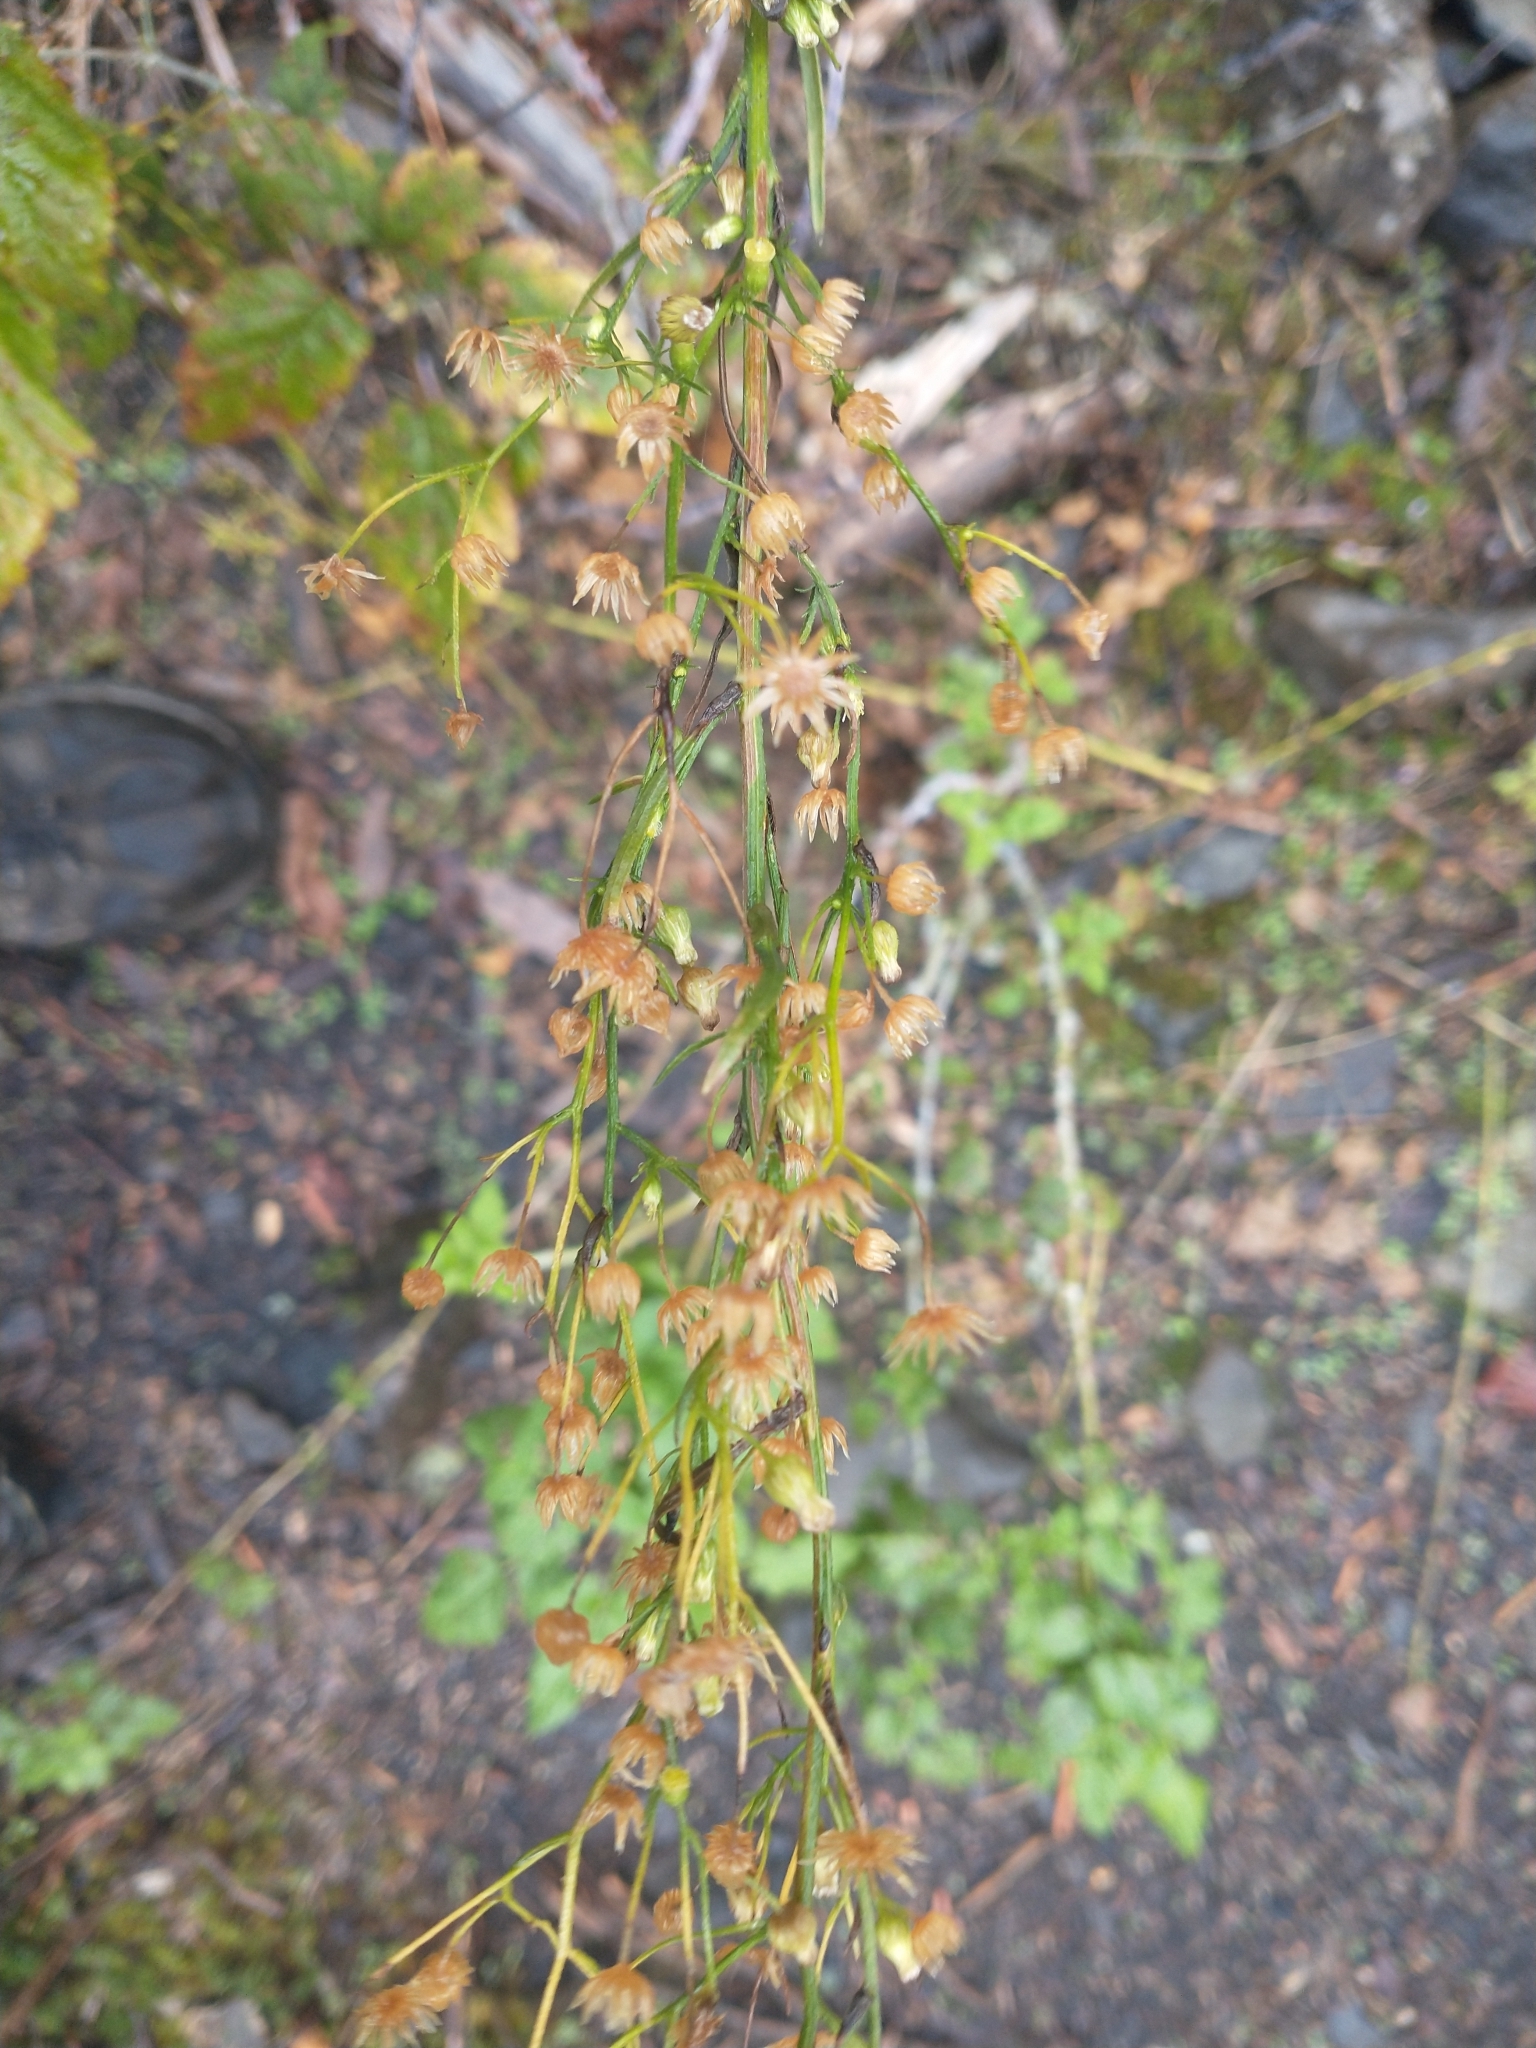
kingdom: Plantae
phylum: Tracheophyta
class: Magnoliopsida
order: Asterales
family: Asteraceae
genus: Erigeron
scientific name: Erigeron canadensis
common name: Canadian fleabane
